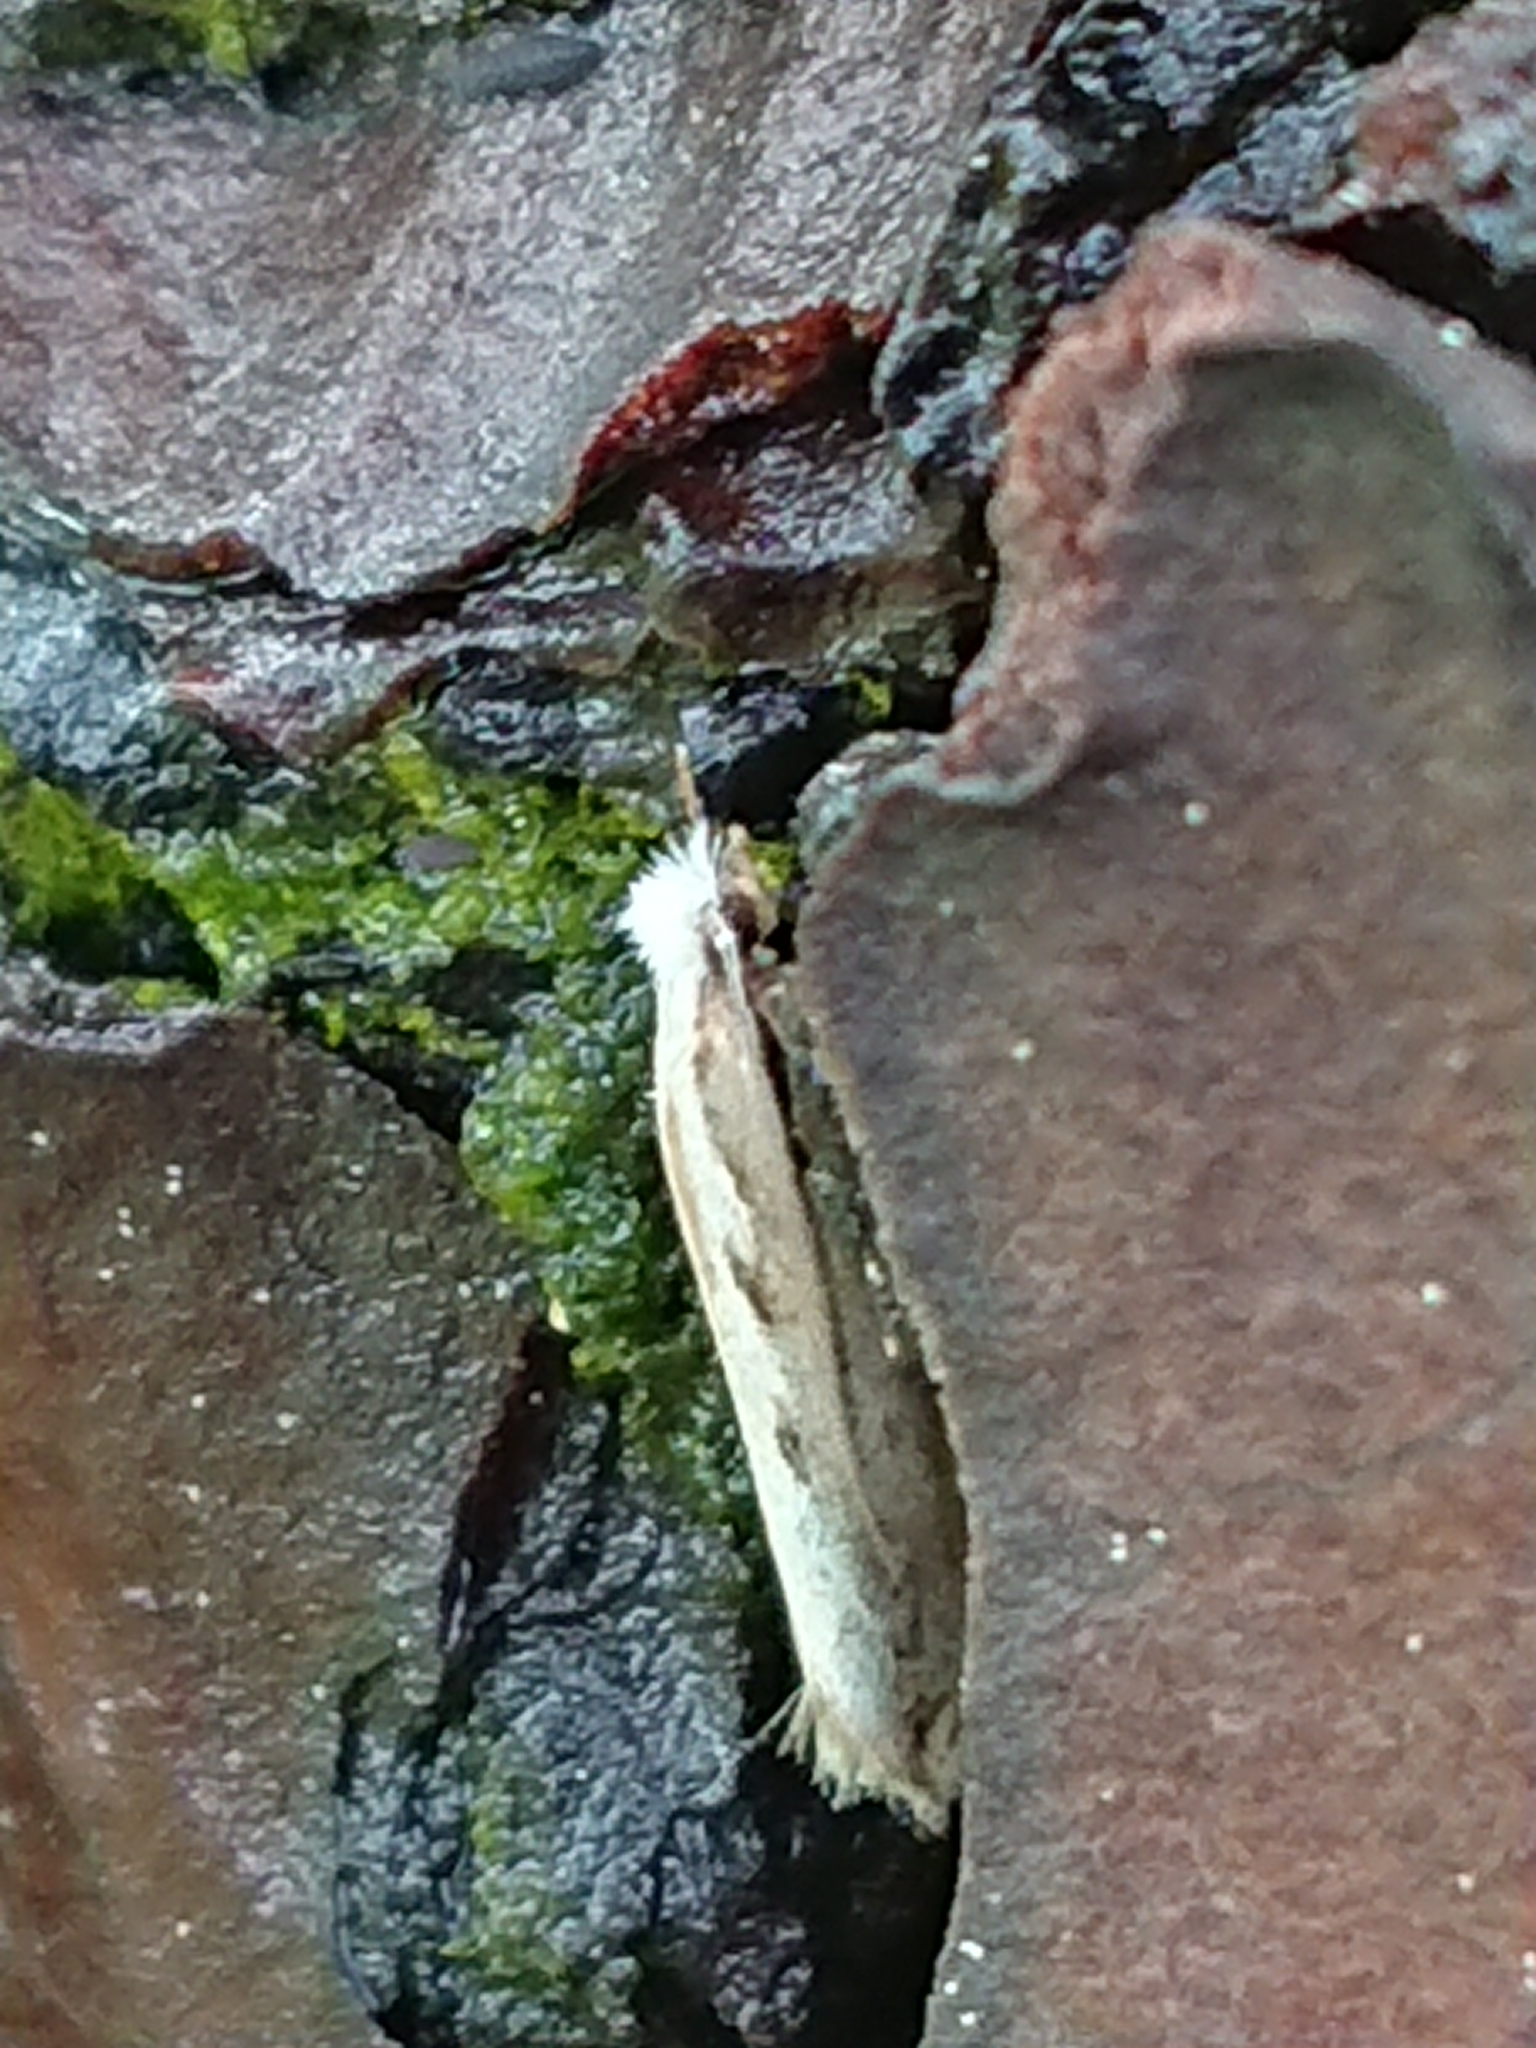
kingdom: Animalia
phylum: Arthropoda
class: Insecta
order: Lepidoptera
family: Tineidae
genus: Erechthias
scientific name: Erechthias fulguritella
